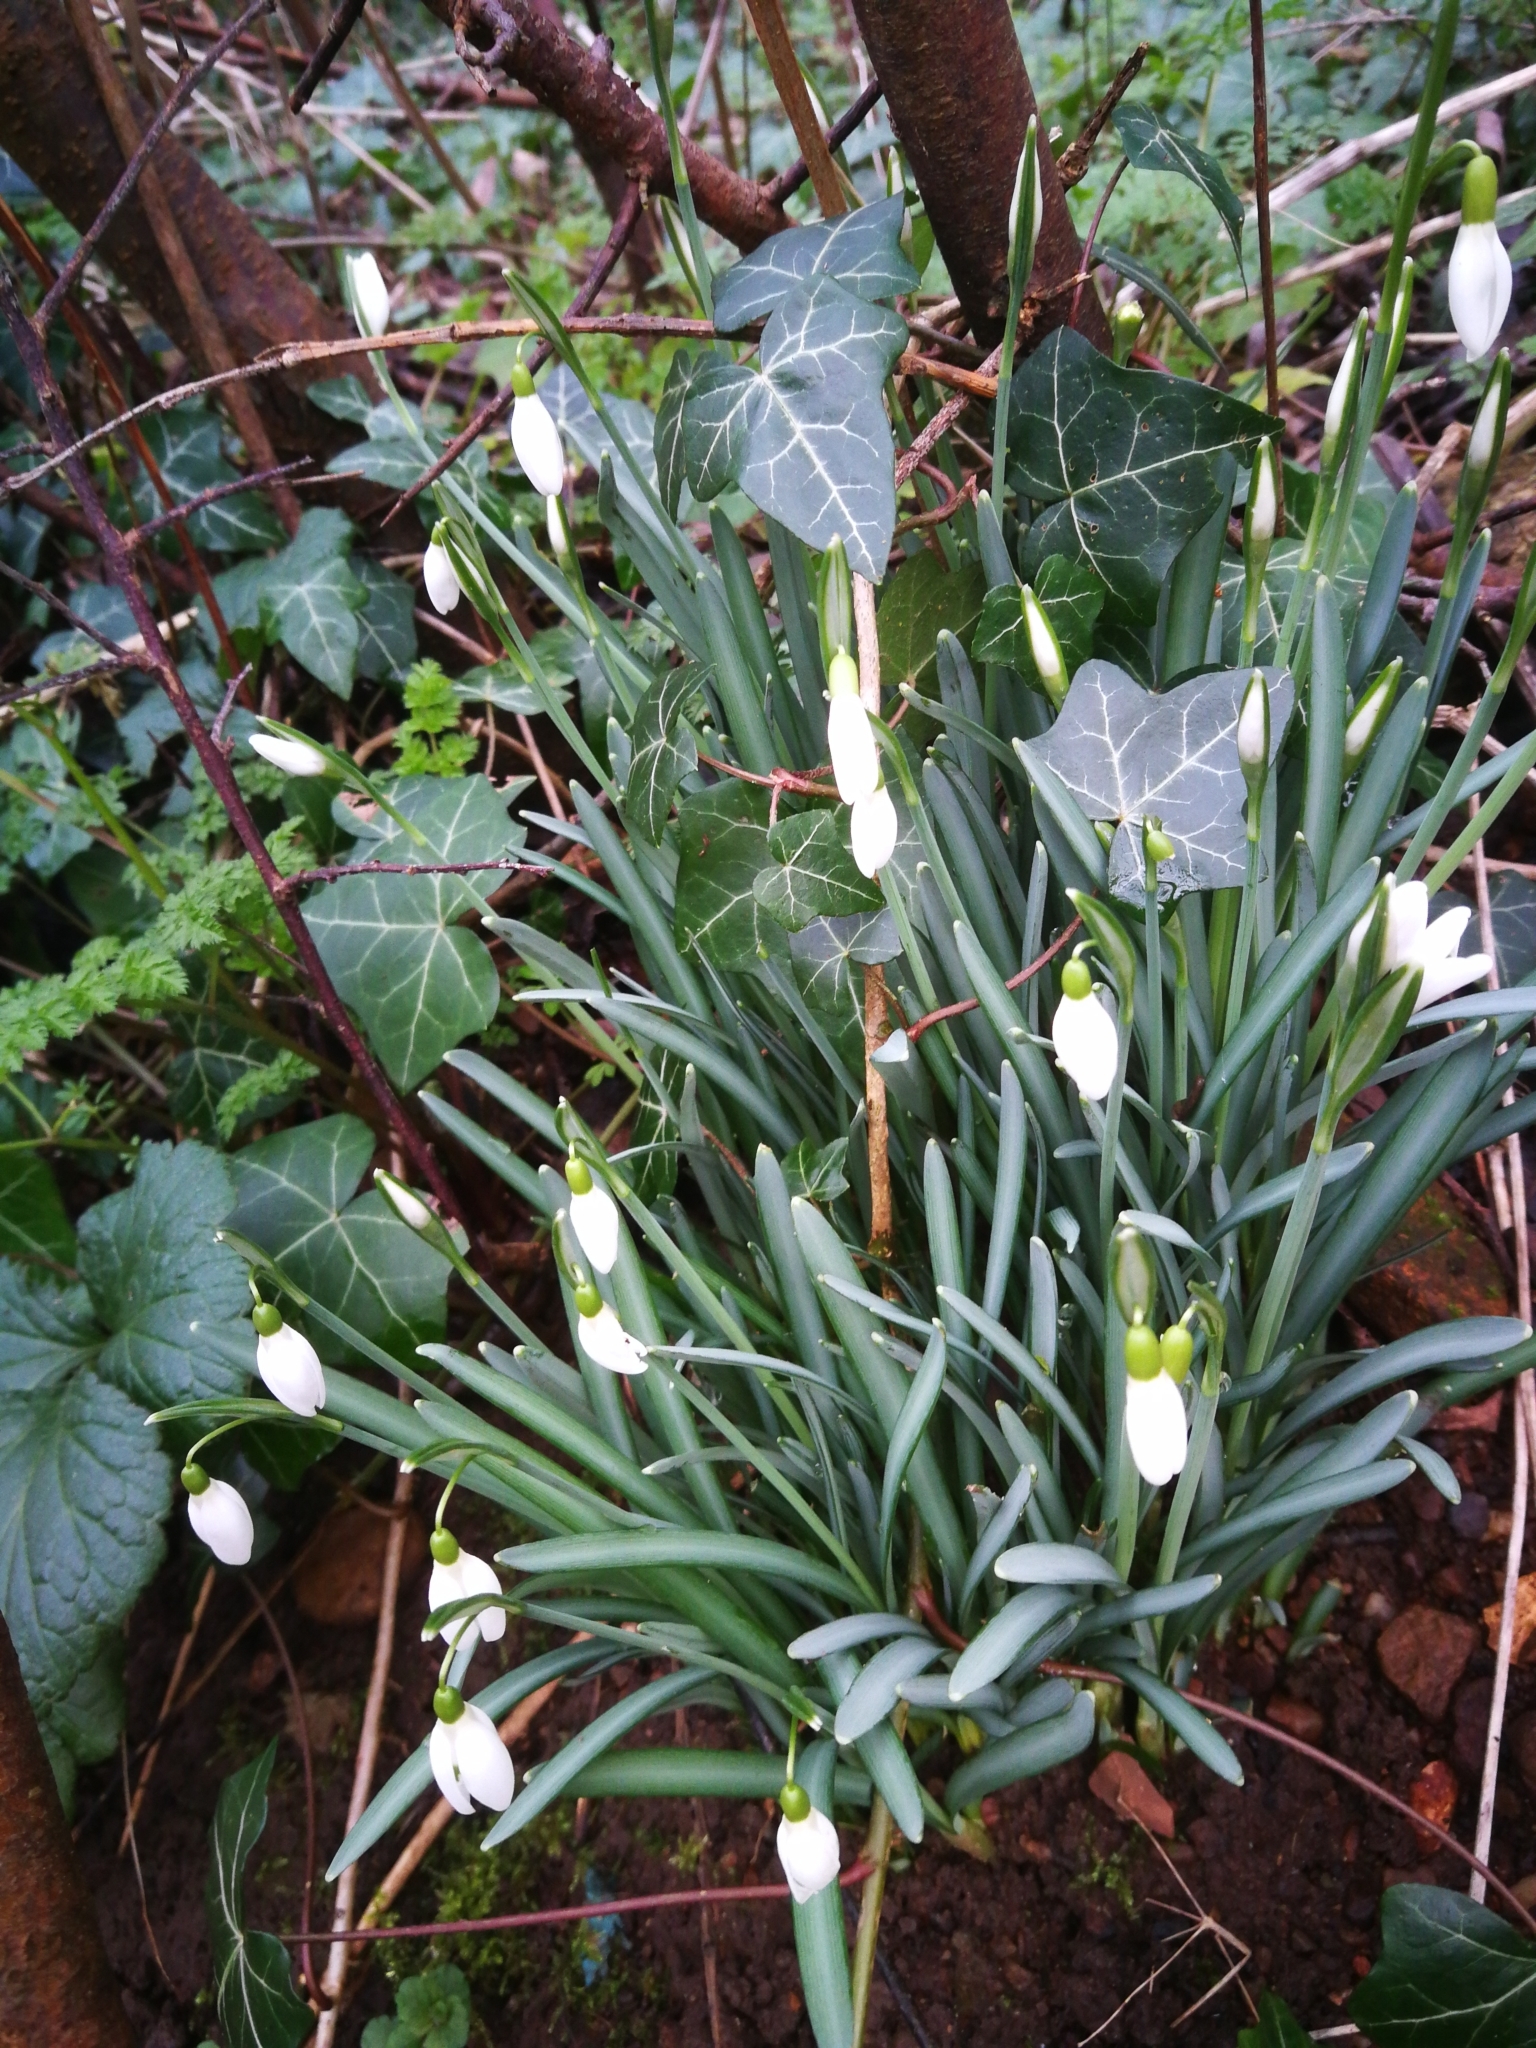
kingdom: Plantae
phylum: Tracheophyta
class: Liliopsida
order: Asparagales
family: Amaryllidaceae
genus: Galanthus
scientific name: Galanthus nivalis
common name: Snowdrop
